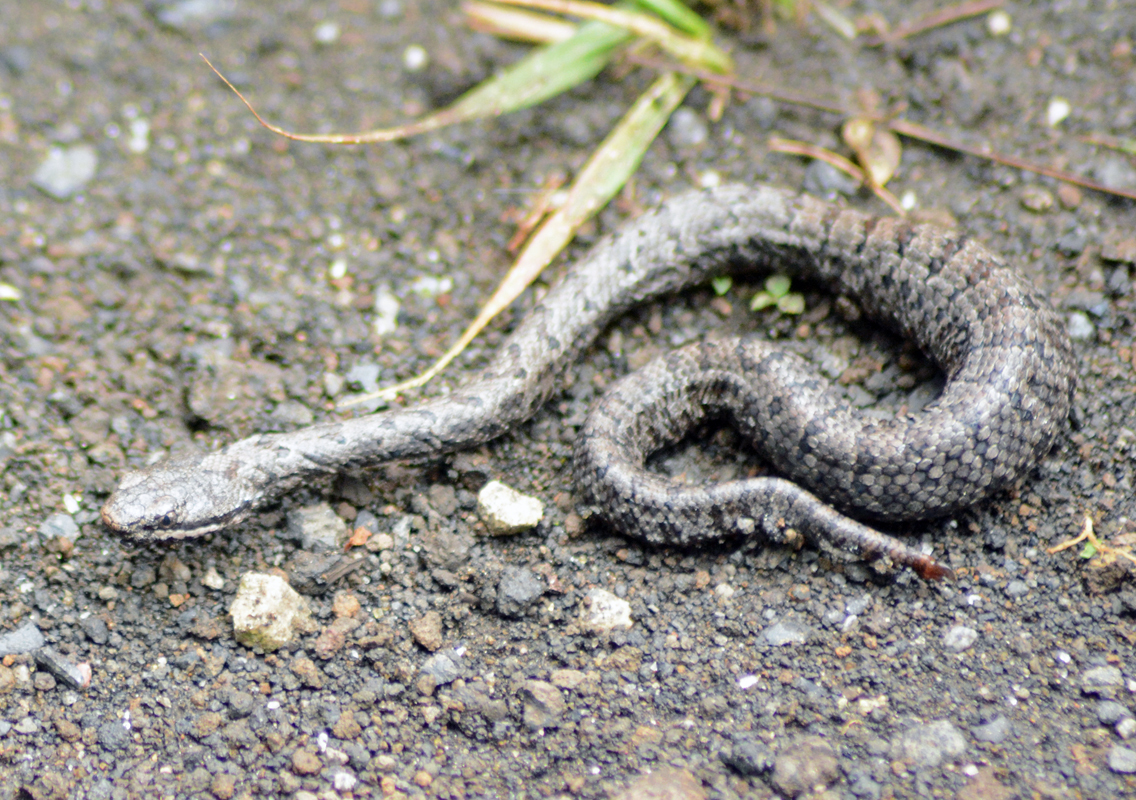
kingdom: Animalia
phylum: Chordata
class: Squamata
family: Viperidae
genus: Crotalus
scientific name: Crotalus transversus
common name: Cross-banded mountain rattlesnake
